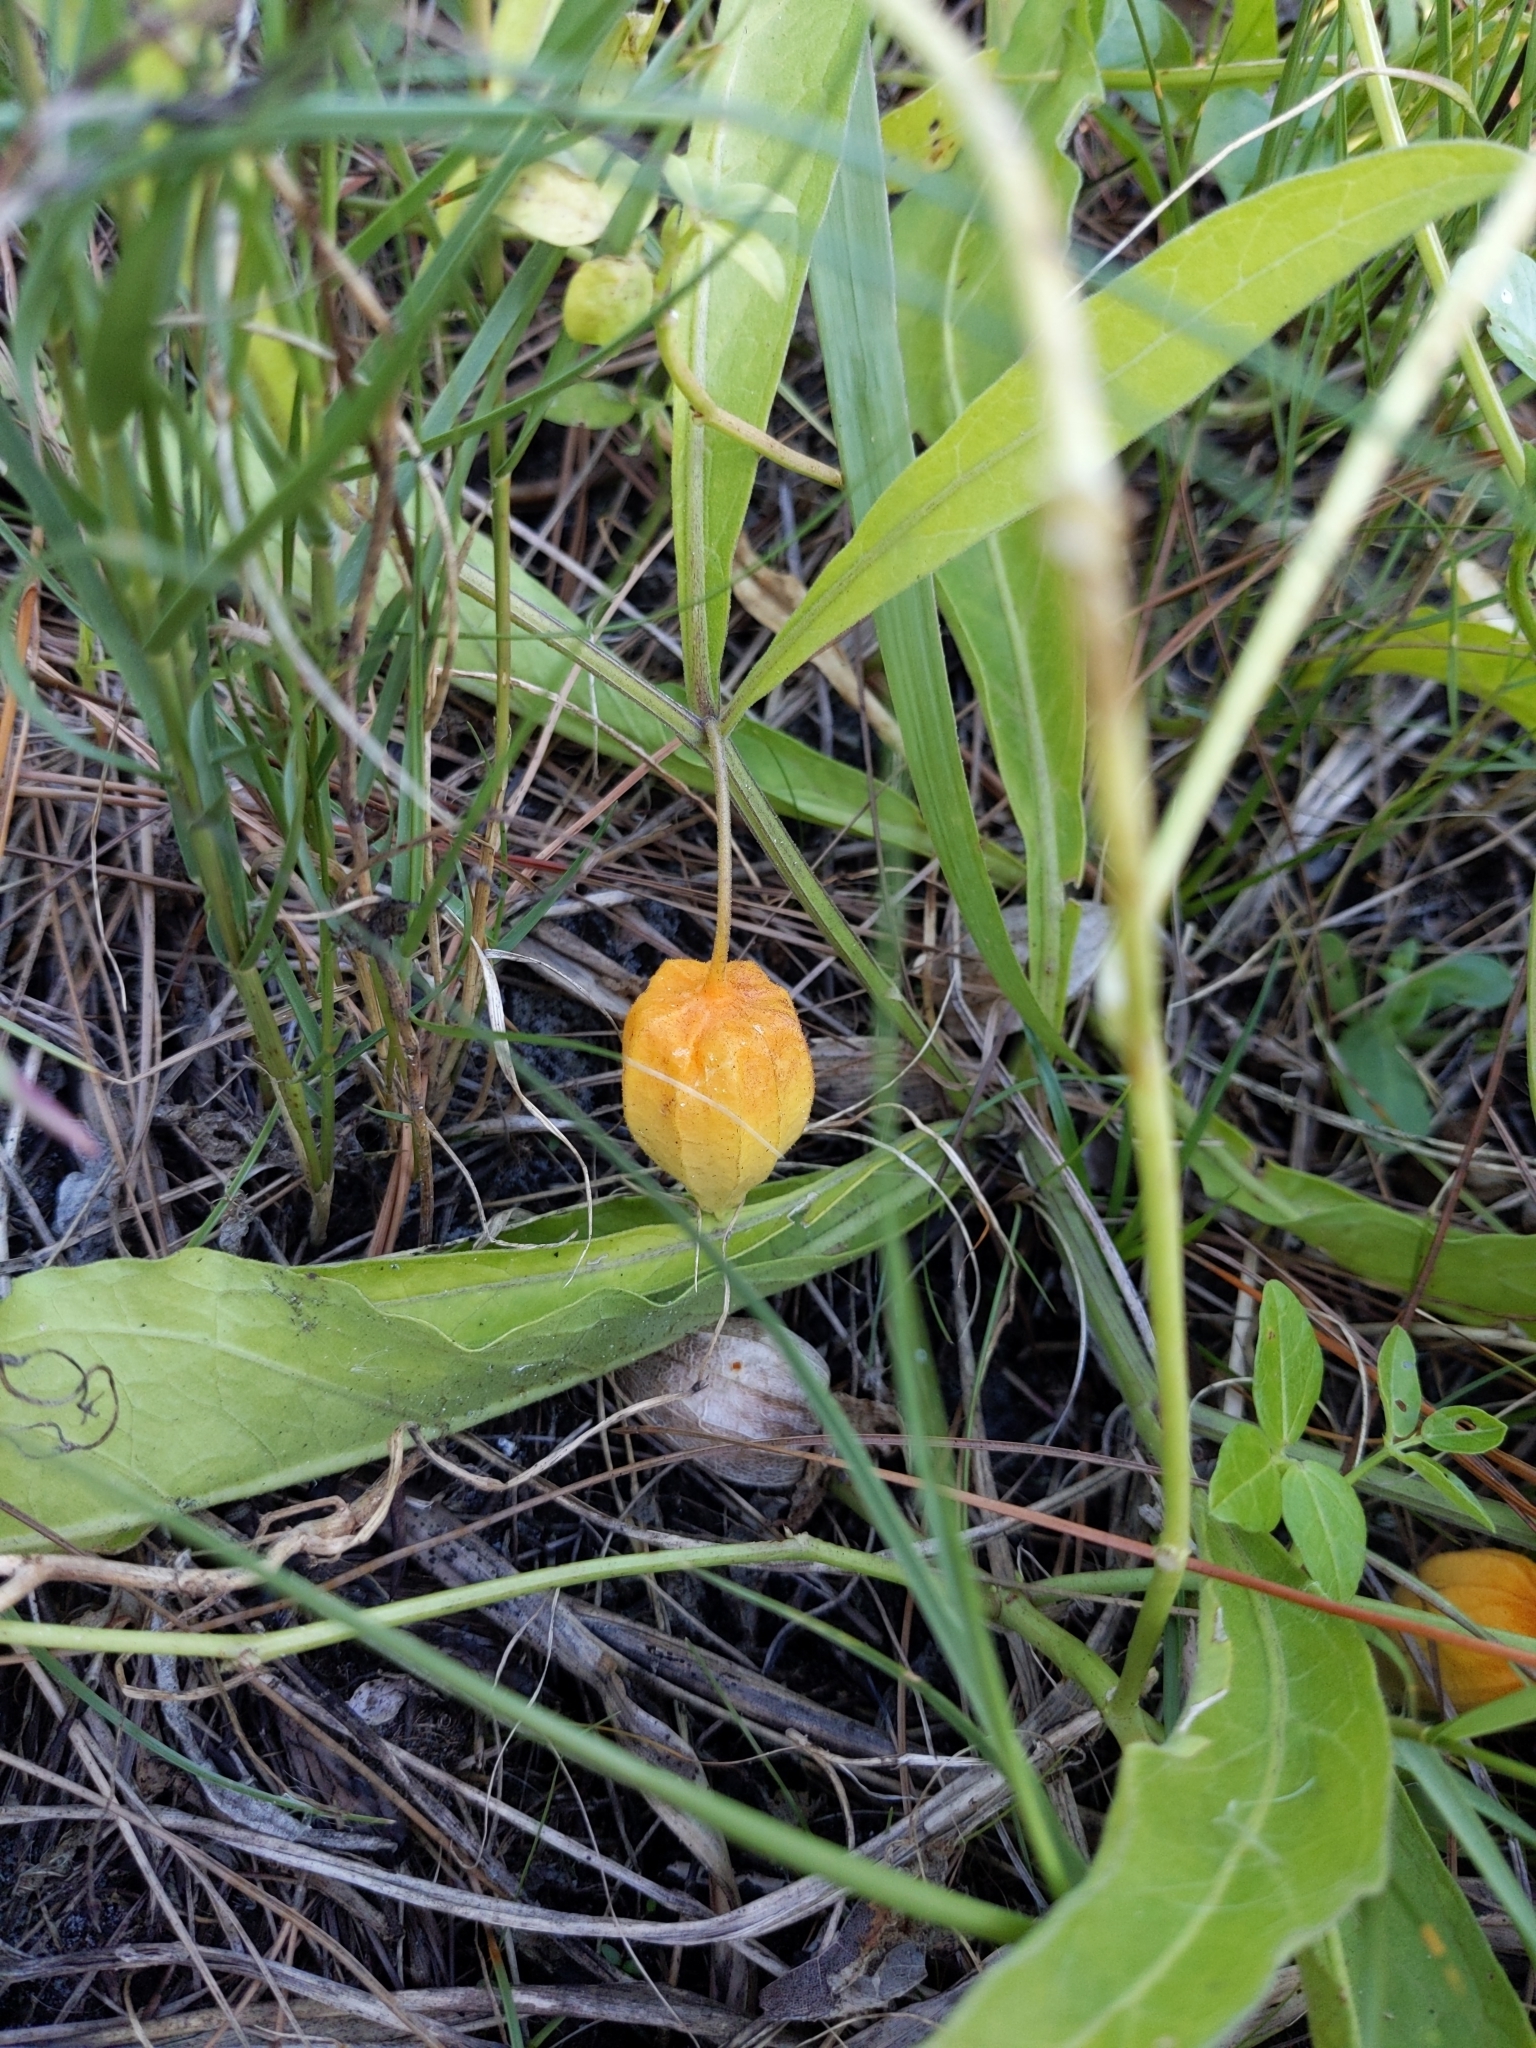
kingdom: Plantae
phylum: Tracheophyta
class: Magnoliopsida
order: Solanales
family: Solanaceae
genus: Physalis
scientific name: Physalis walteri
